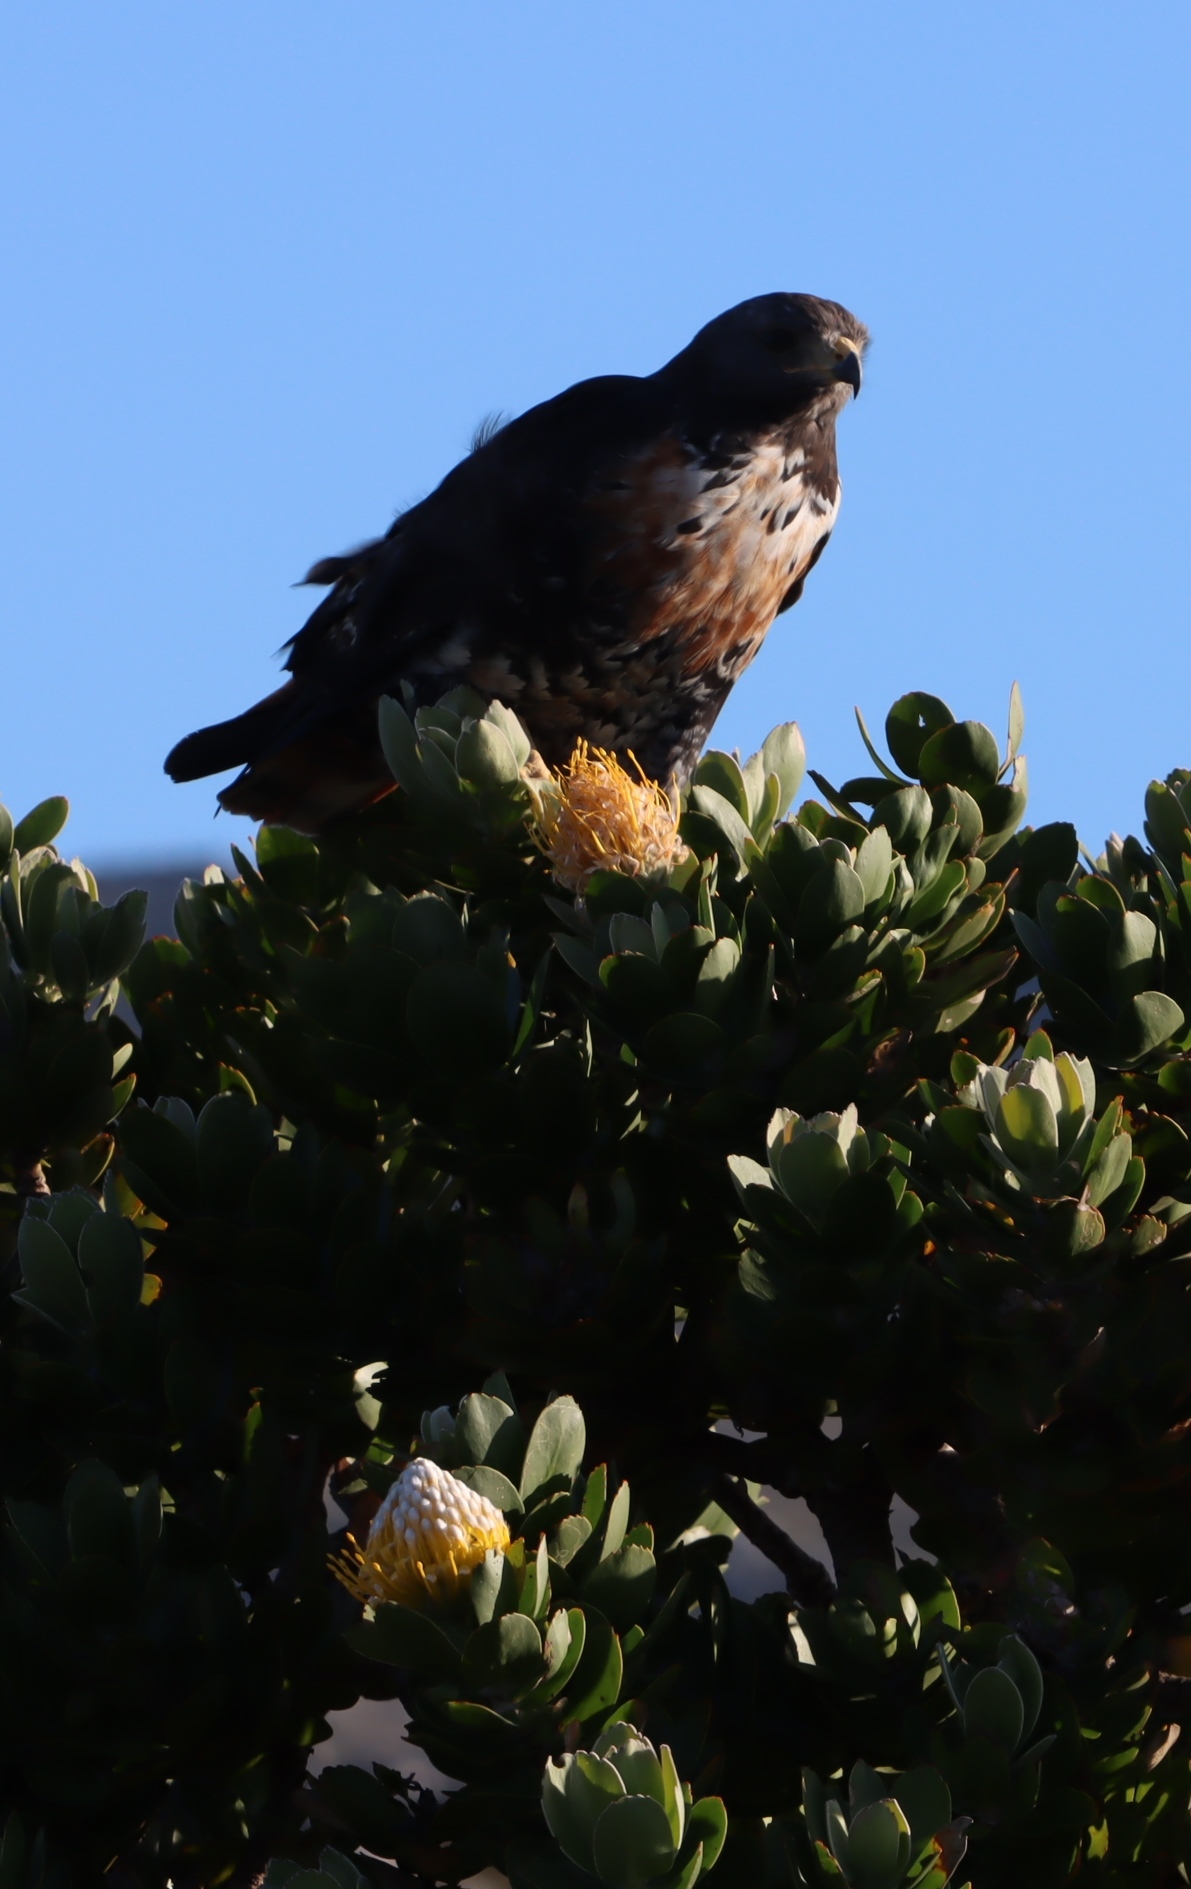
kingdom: Animalia
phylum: Chordata
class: Aves
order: Accipitriformes
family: Accipitridae
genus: Buteo
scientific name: Buteo rufofuscus
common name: Jackal buzzard
